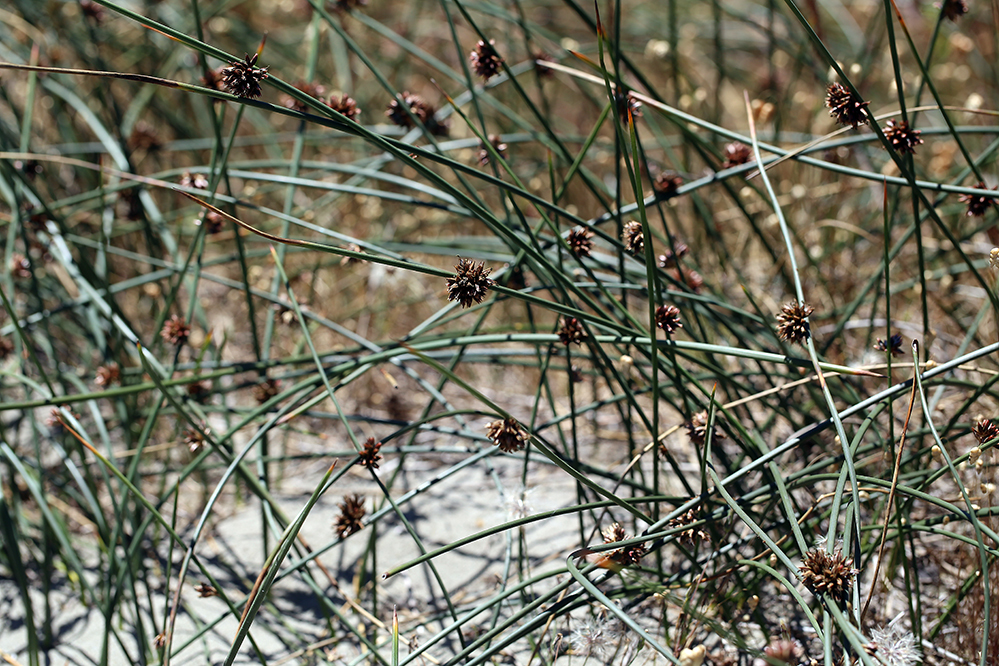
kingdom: Plantae
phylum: Tracheophyta
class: Liliopsida
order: Poales
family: Juncaceae
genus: Juncus
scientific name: Juncus breweri
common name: Brewer's rush
